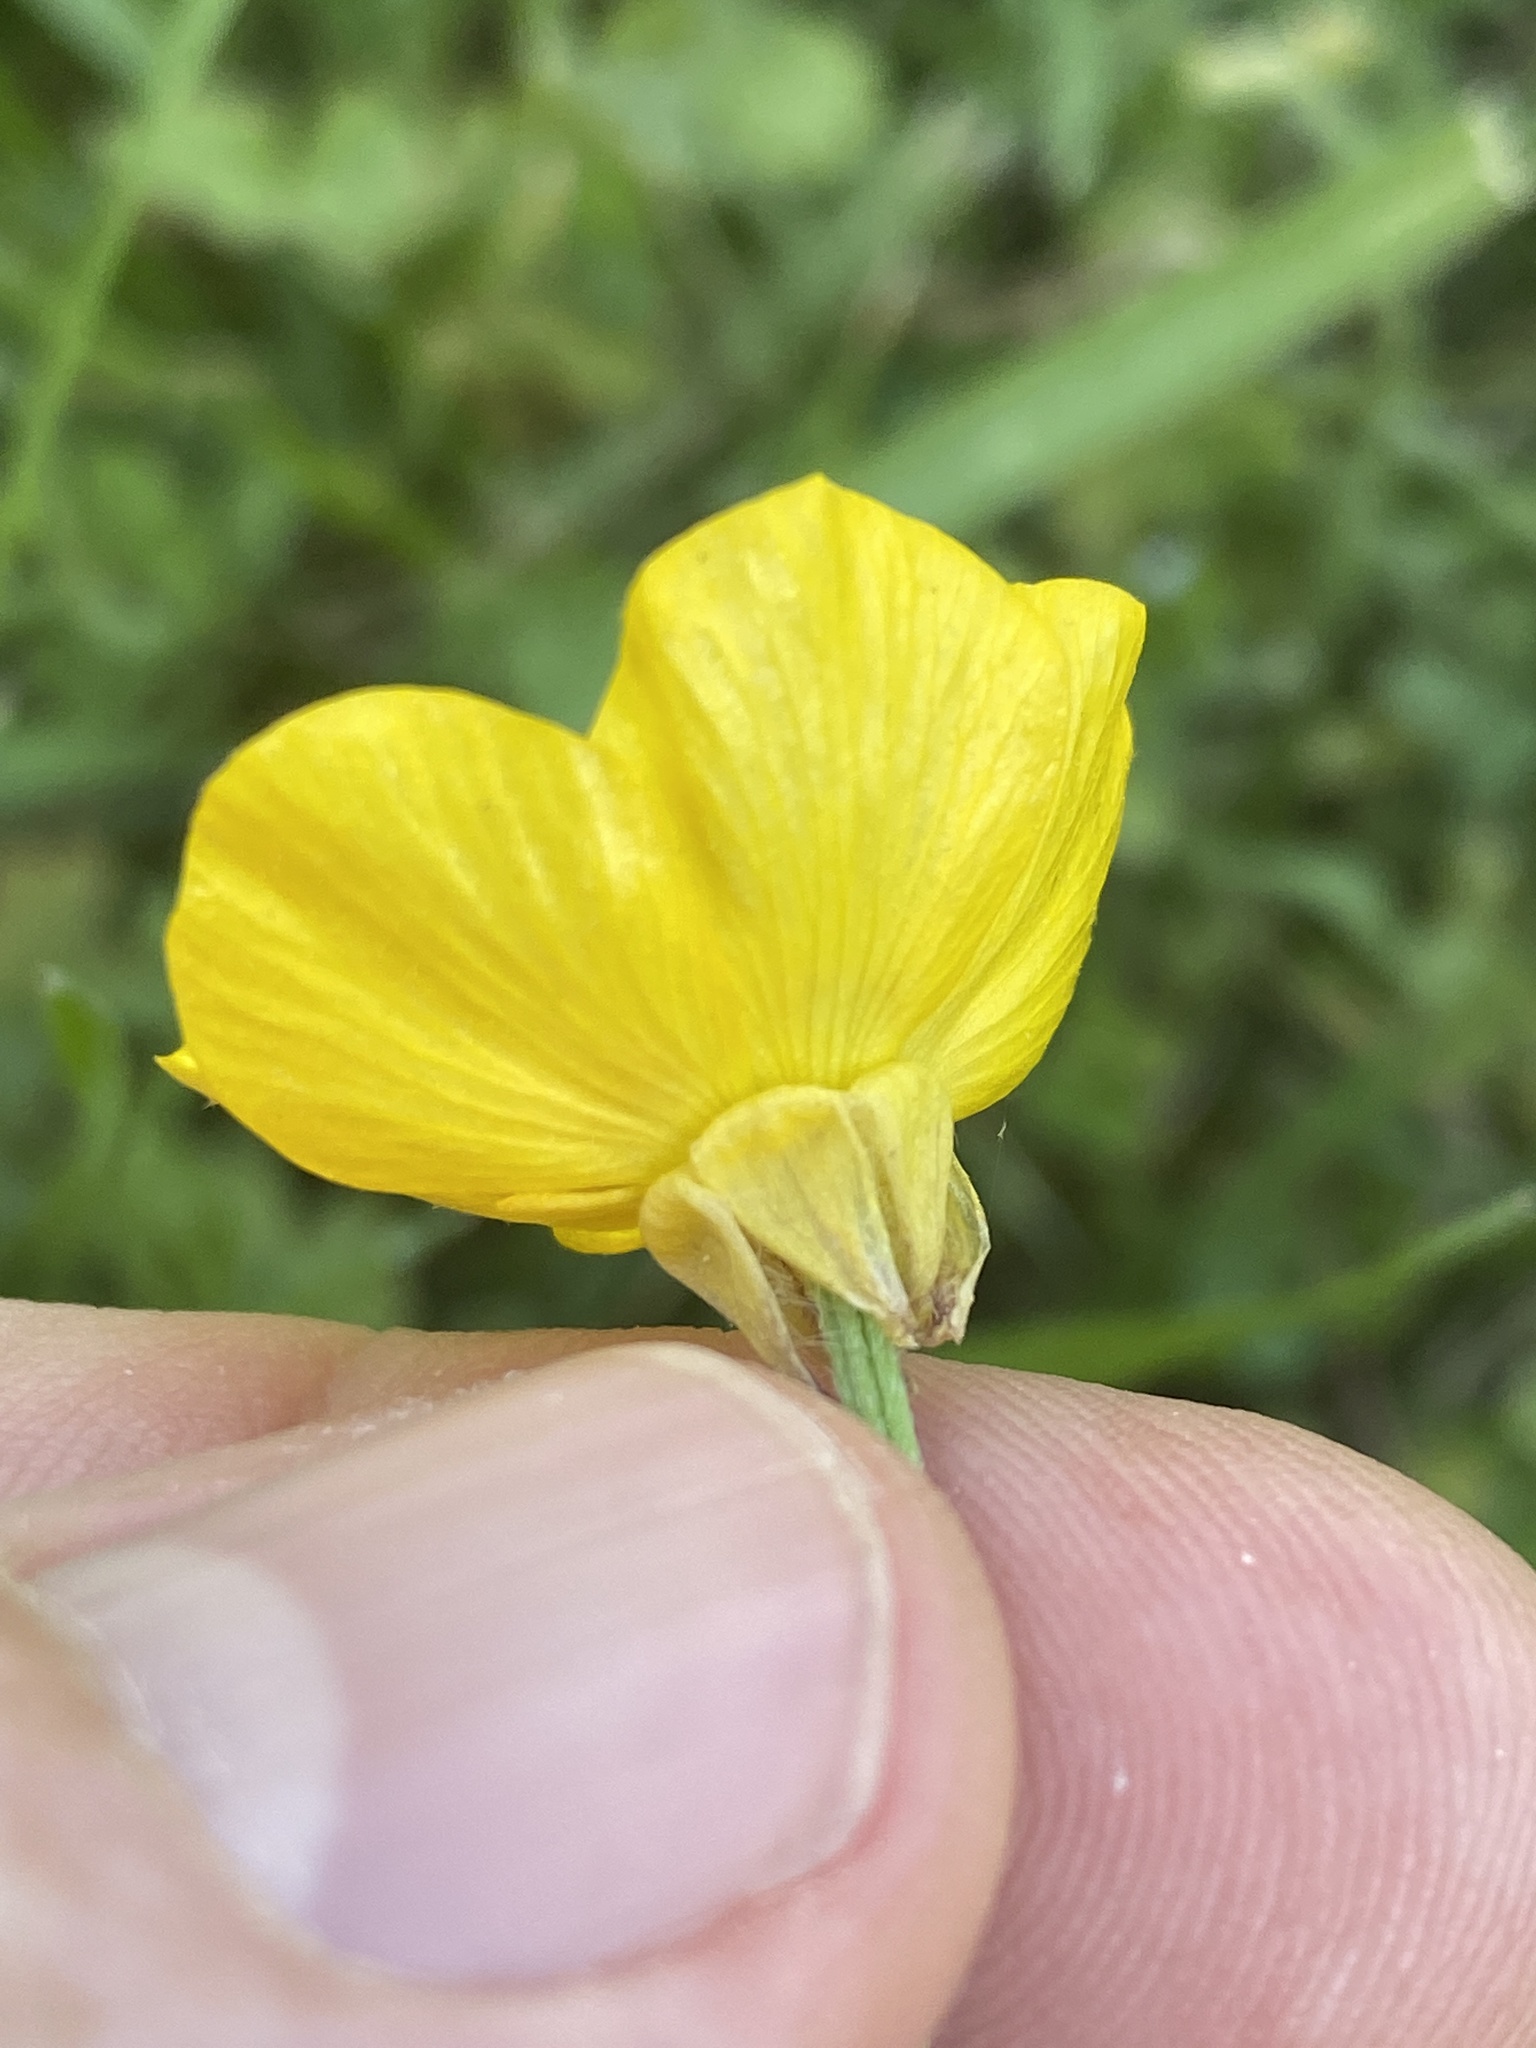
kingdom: Plantae
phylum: Tracheophyta
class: Magnoliopsida
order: Ranunculales
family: Ranunculaceae
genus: Ranunculus
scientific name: Ranunculus bulbosus
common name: Bulbous buttercup
